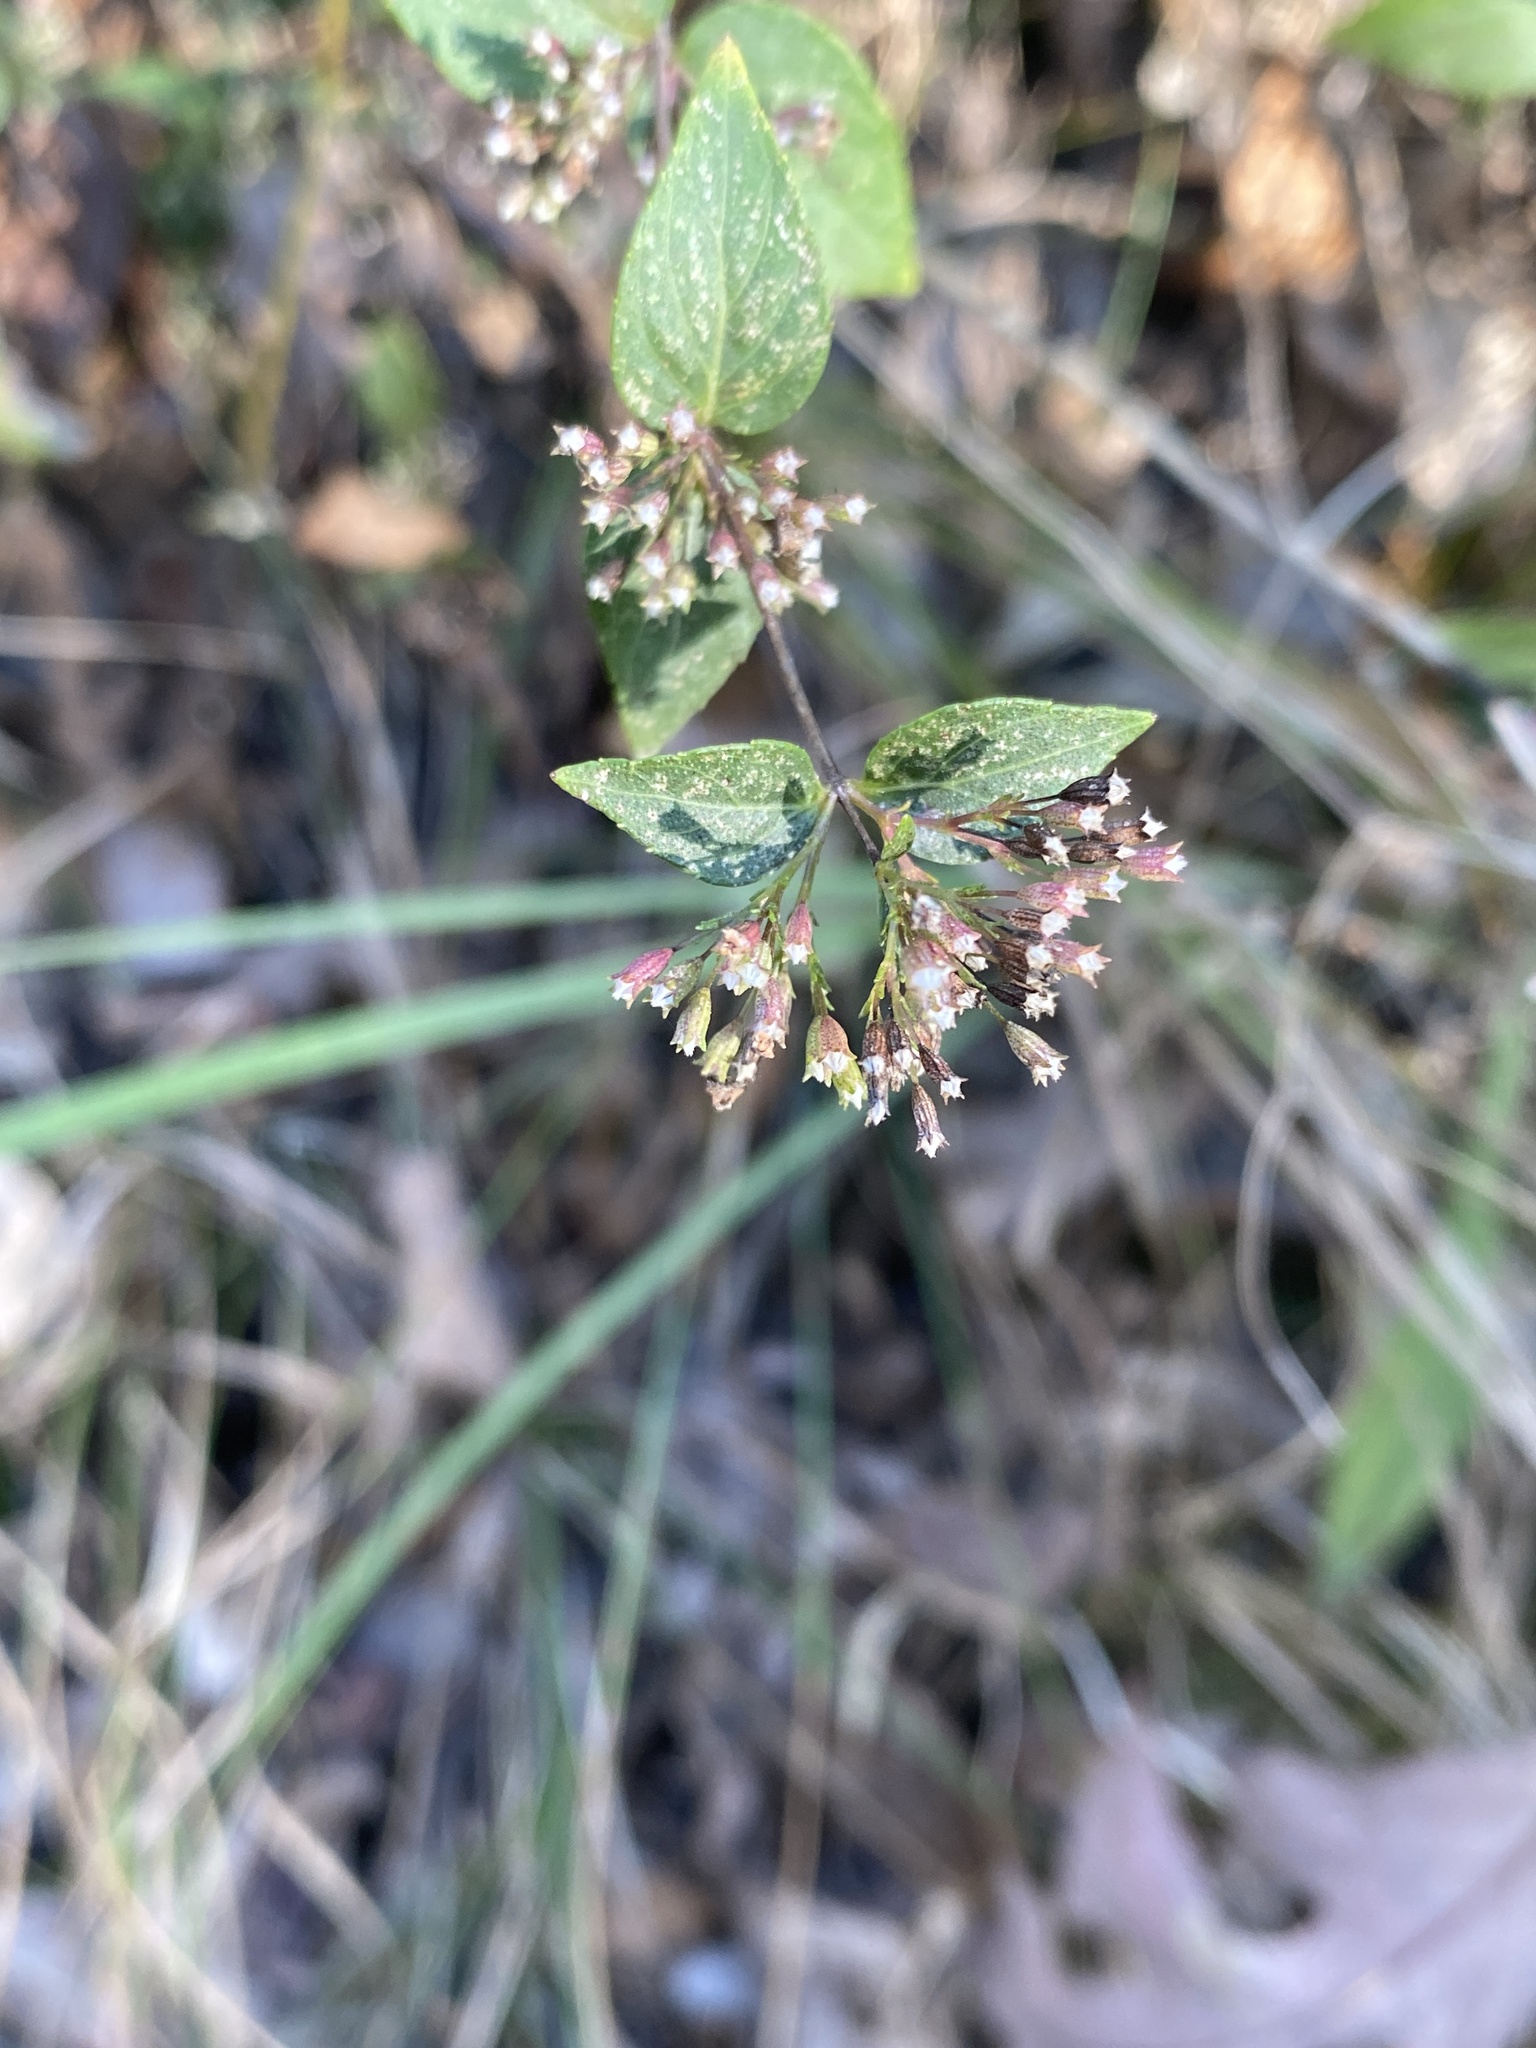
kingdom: Plantae
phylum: Tracheophyta
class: Magnoliopsida
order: Lamiales
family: Lamiaceae
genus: Cunila
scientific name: Cunila origanoides
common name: American dittany
